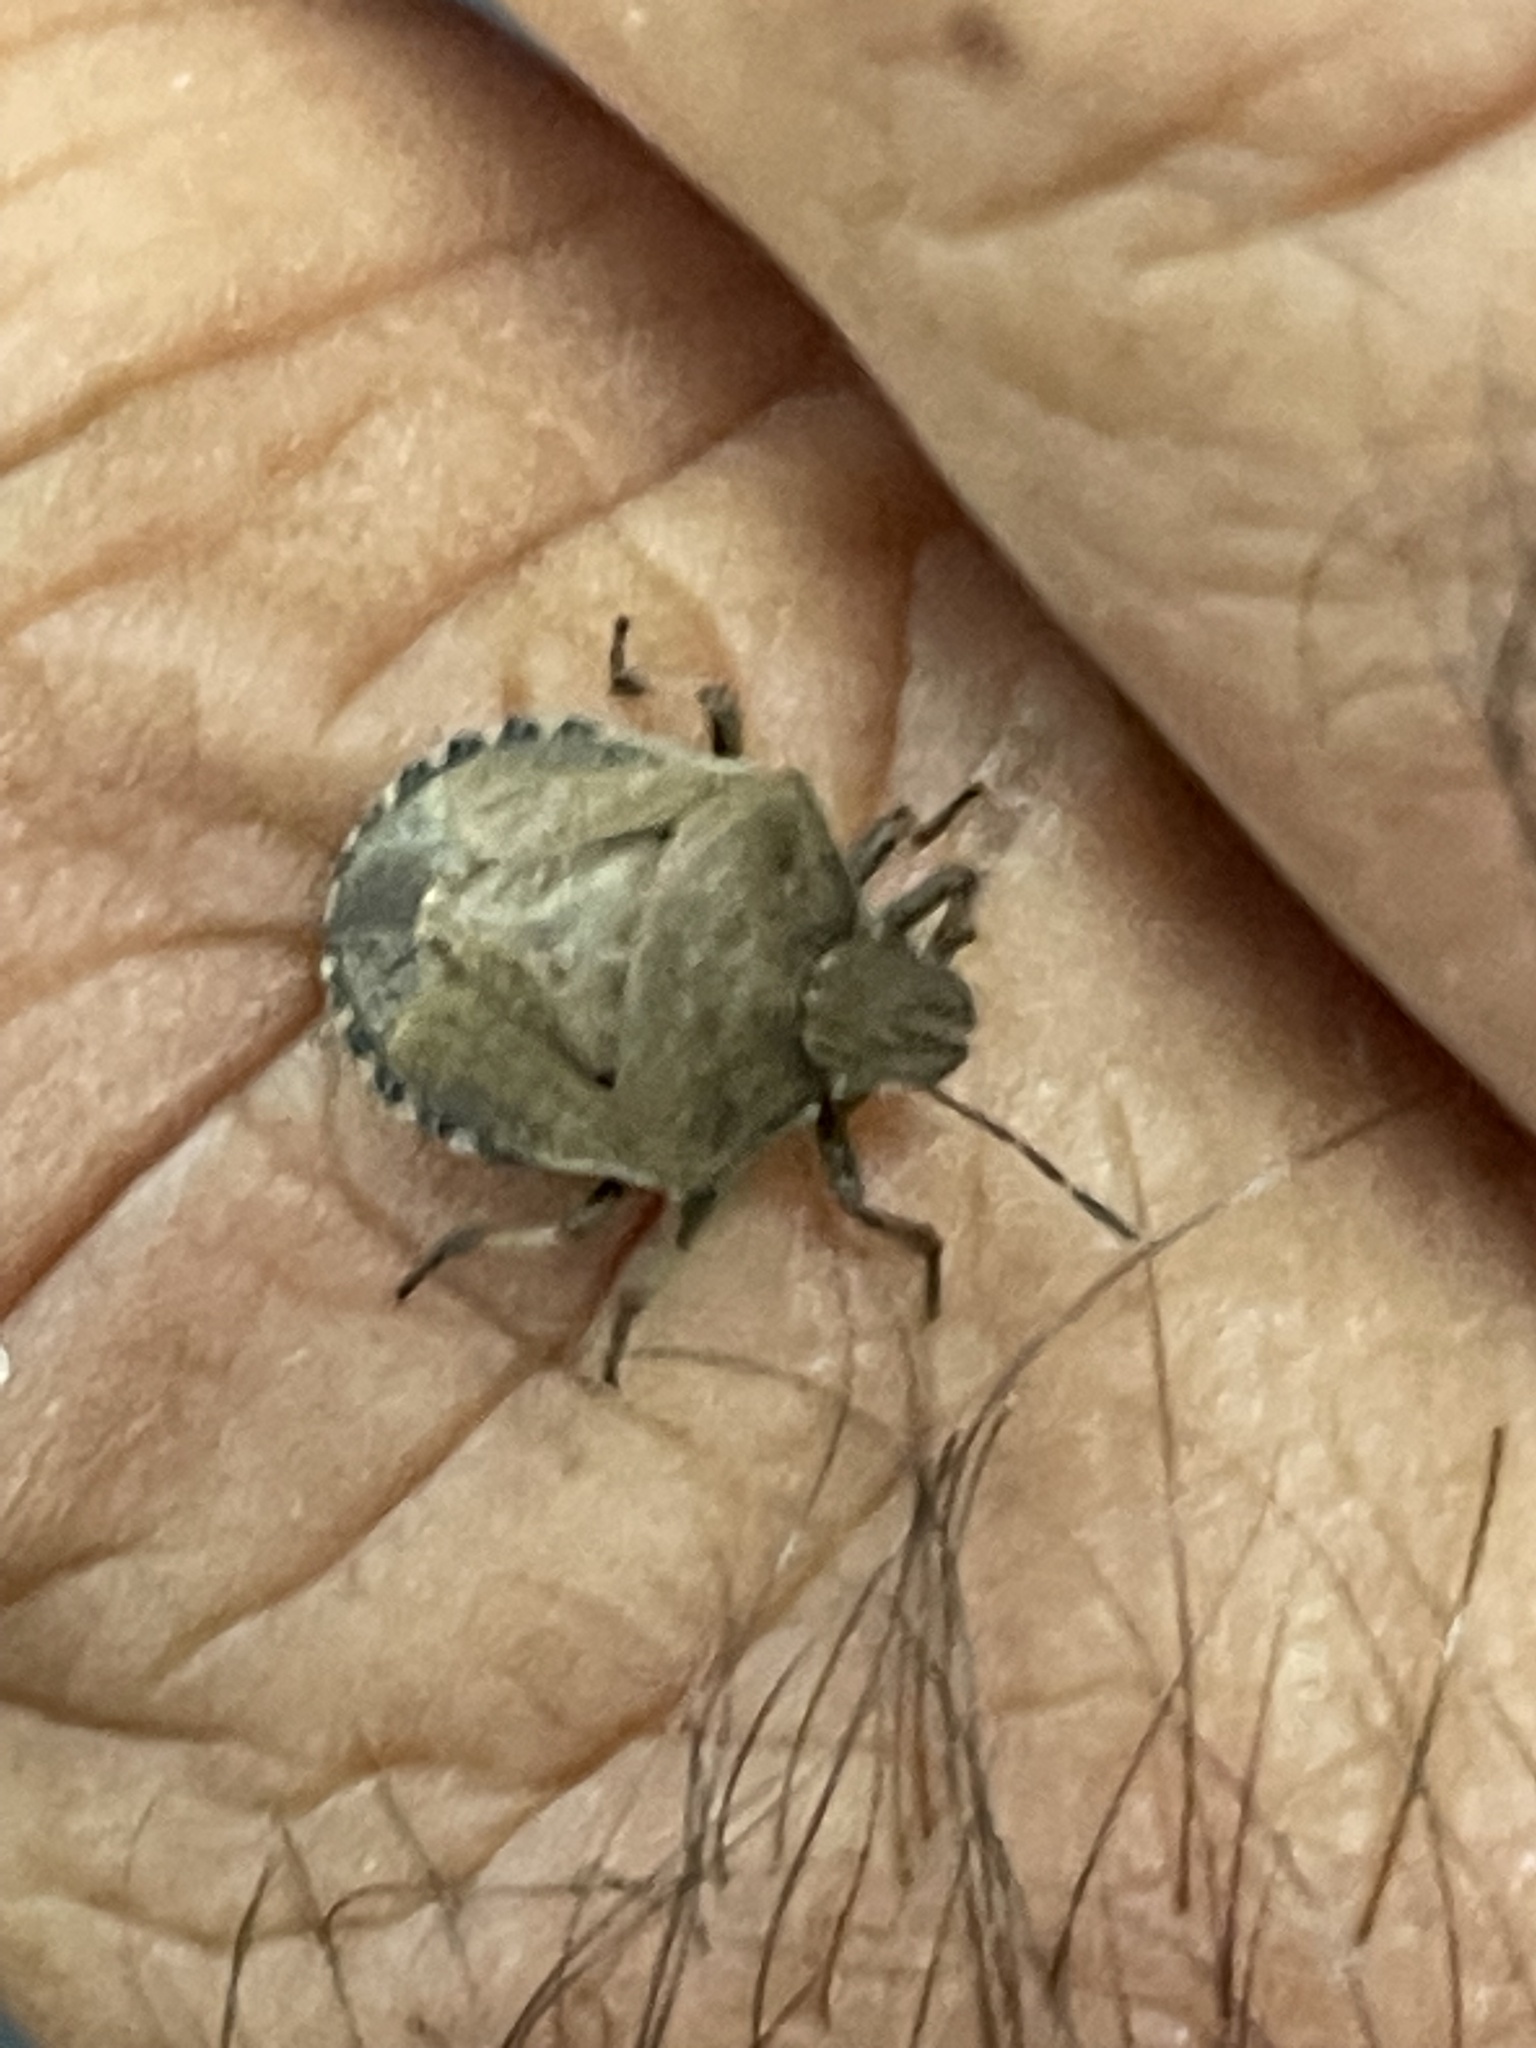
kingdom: Animalia
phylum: Arthropoda
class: Insecta
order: Hemiptera
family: Pentatomidae
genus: Dictyotus
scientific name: Dictyotus caenosus
